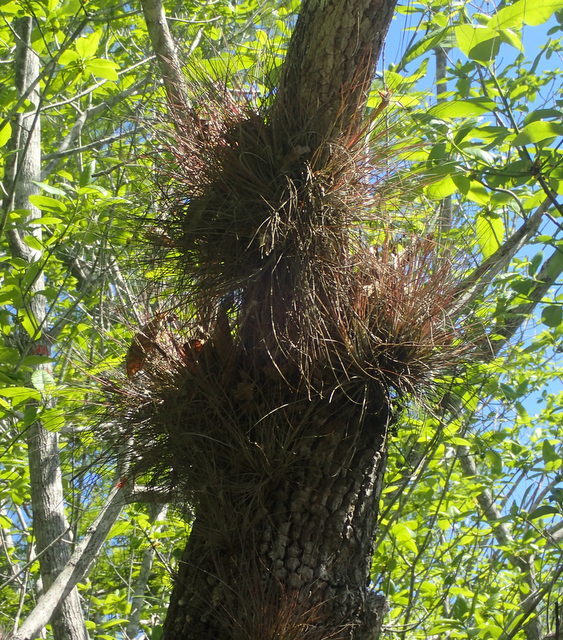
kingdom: Plantae
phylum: Tracheophyta
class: Liliopsida
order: Poales
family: Bromeliaceae
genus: Tillandsia
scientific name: Tillandsia bartramii
